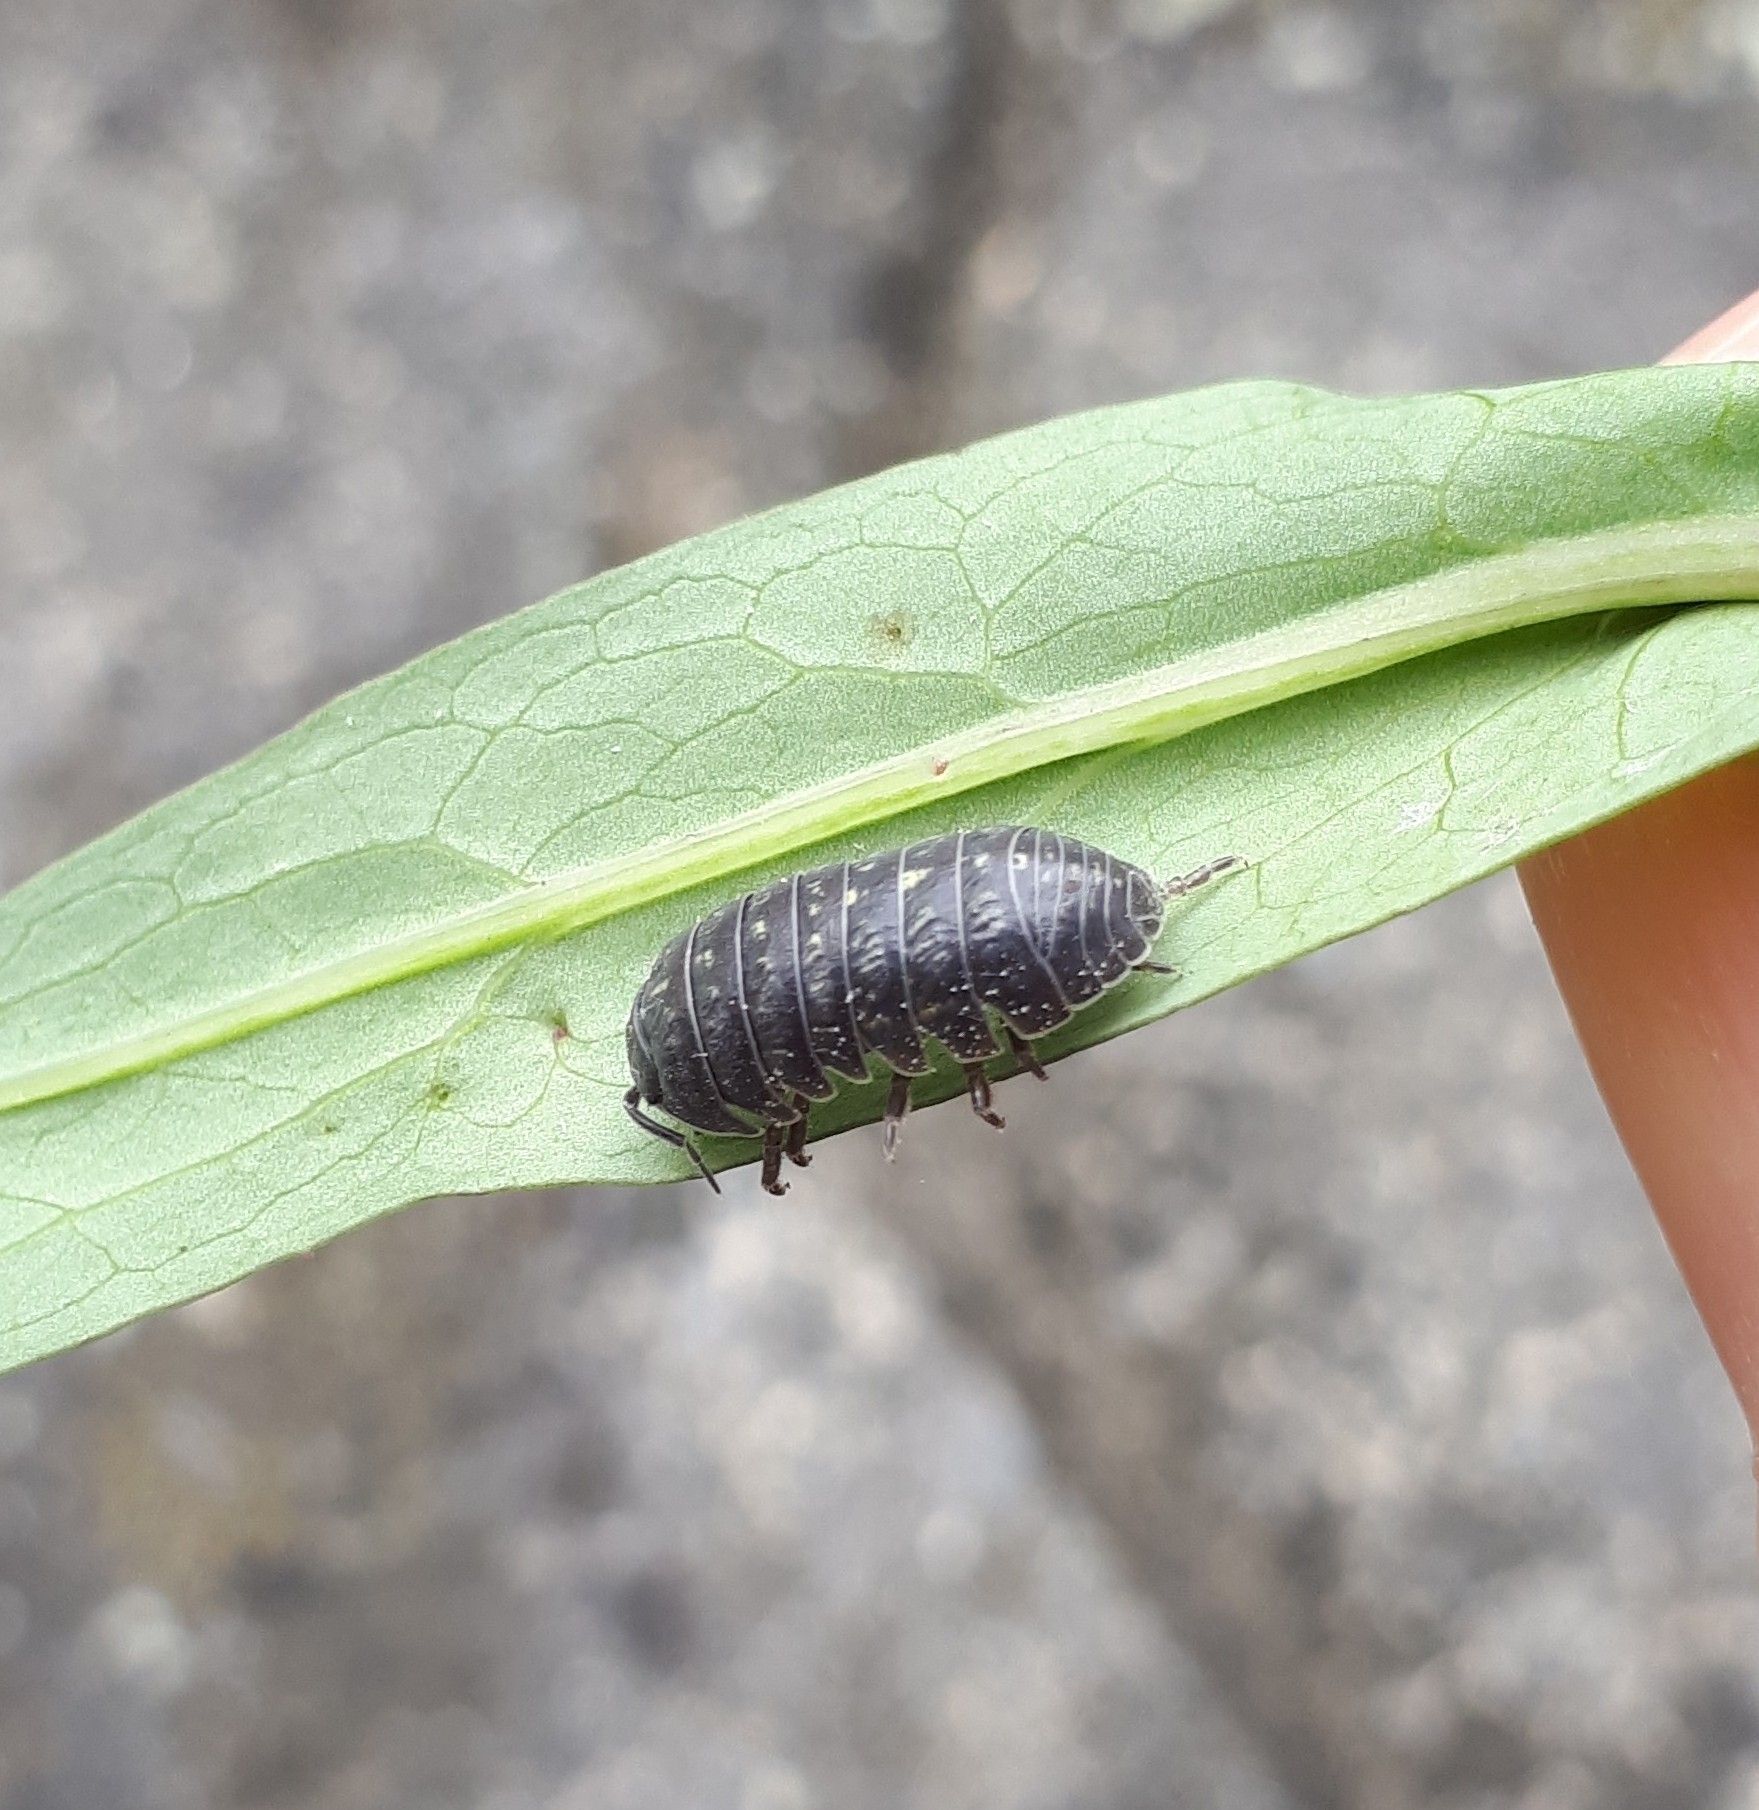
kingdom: Animalia
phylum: Arthropoda
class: Malacostraca
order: Isopoda
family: Armadillidiidae
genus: Armadillidium
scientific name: Armadillidium vulgare
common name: Common pill woodlouse
